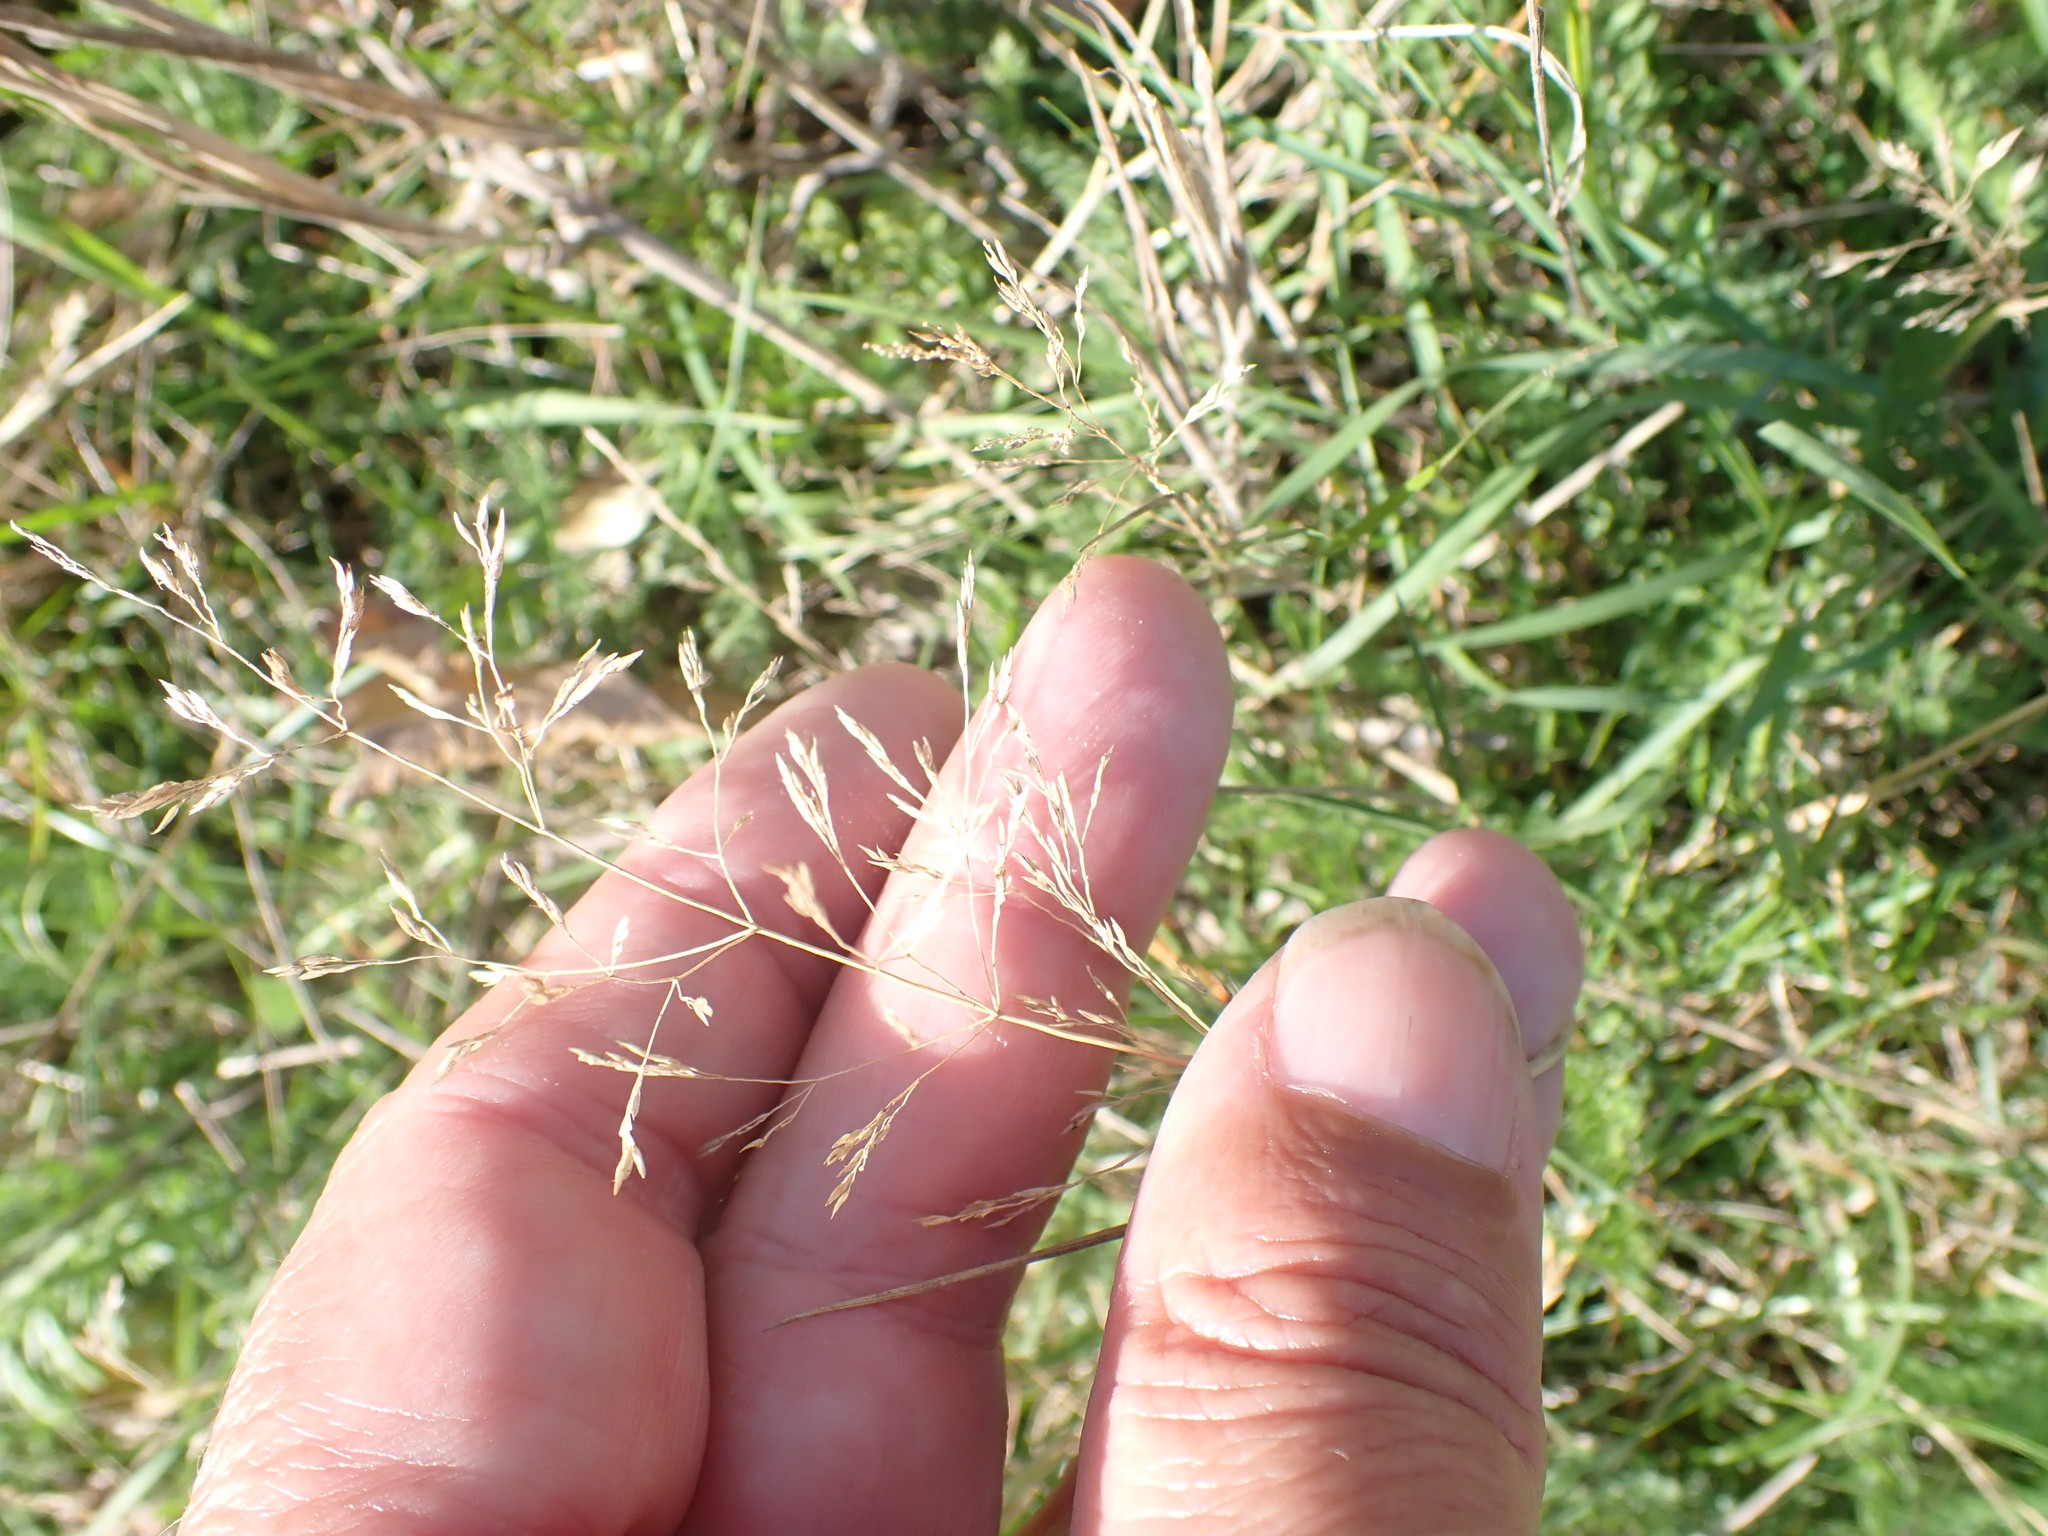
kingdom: Plantae
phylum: Tracheophyta
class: Liliopsida
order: Poales
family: Poaceae
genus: Agrostis
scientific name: Agrostis capillaris
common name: Colonial bentgrass
